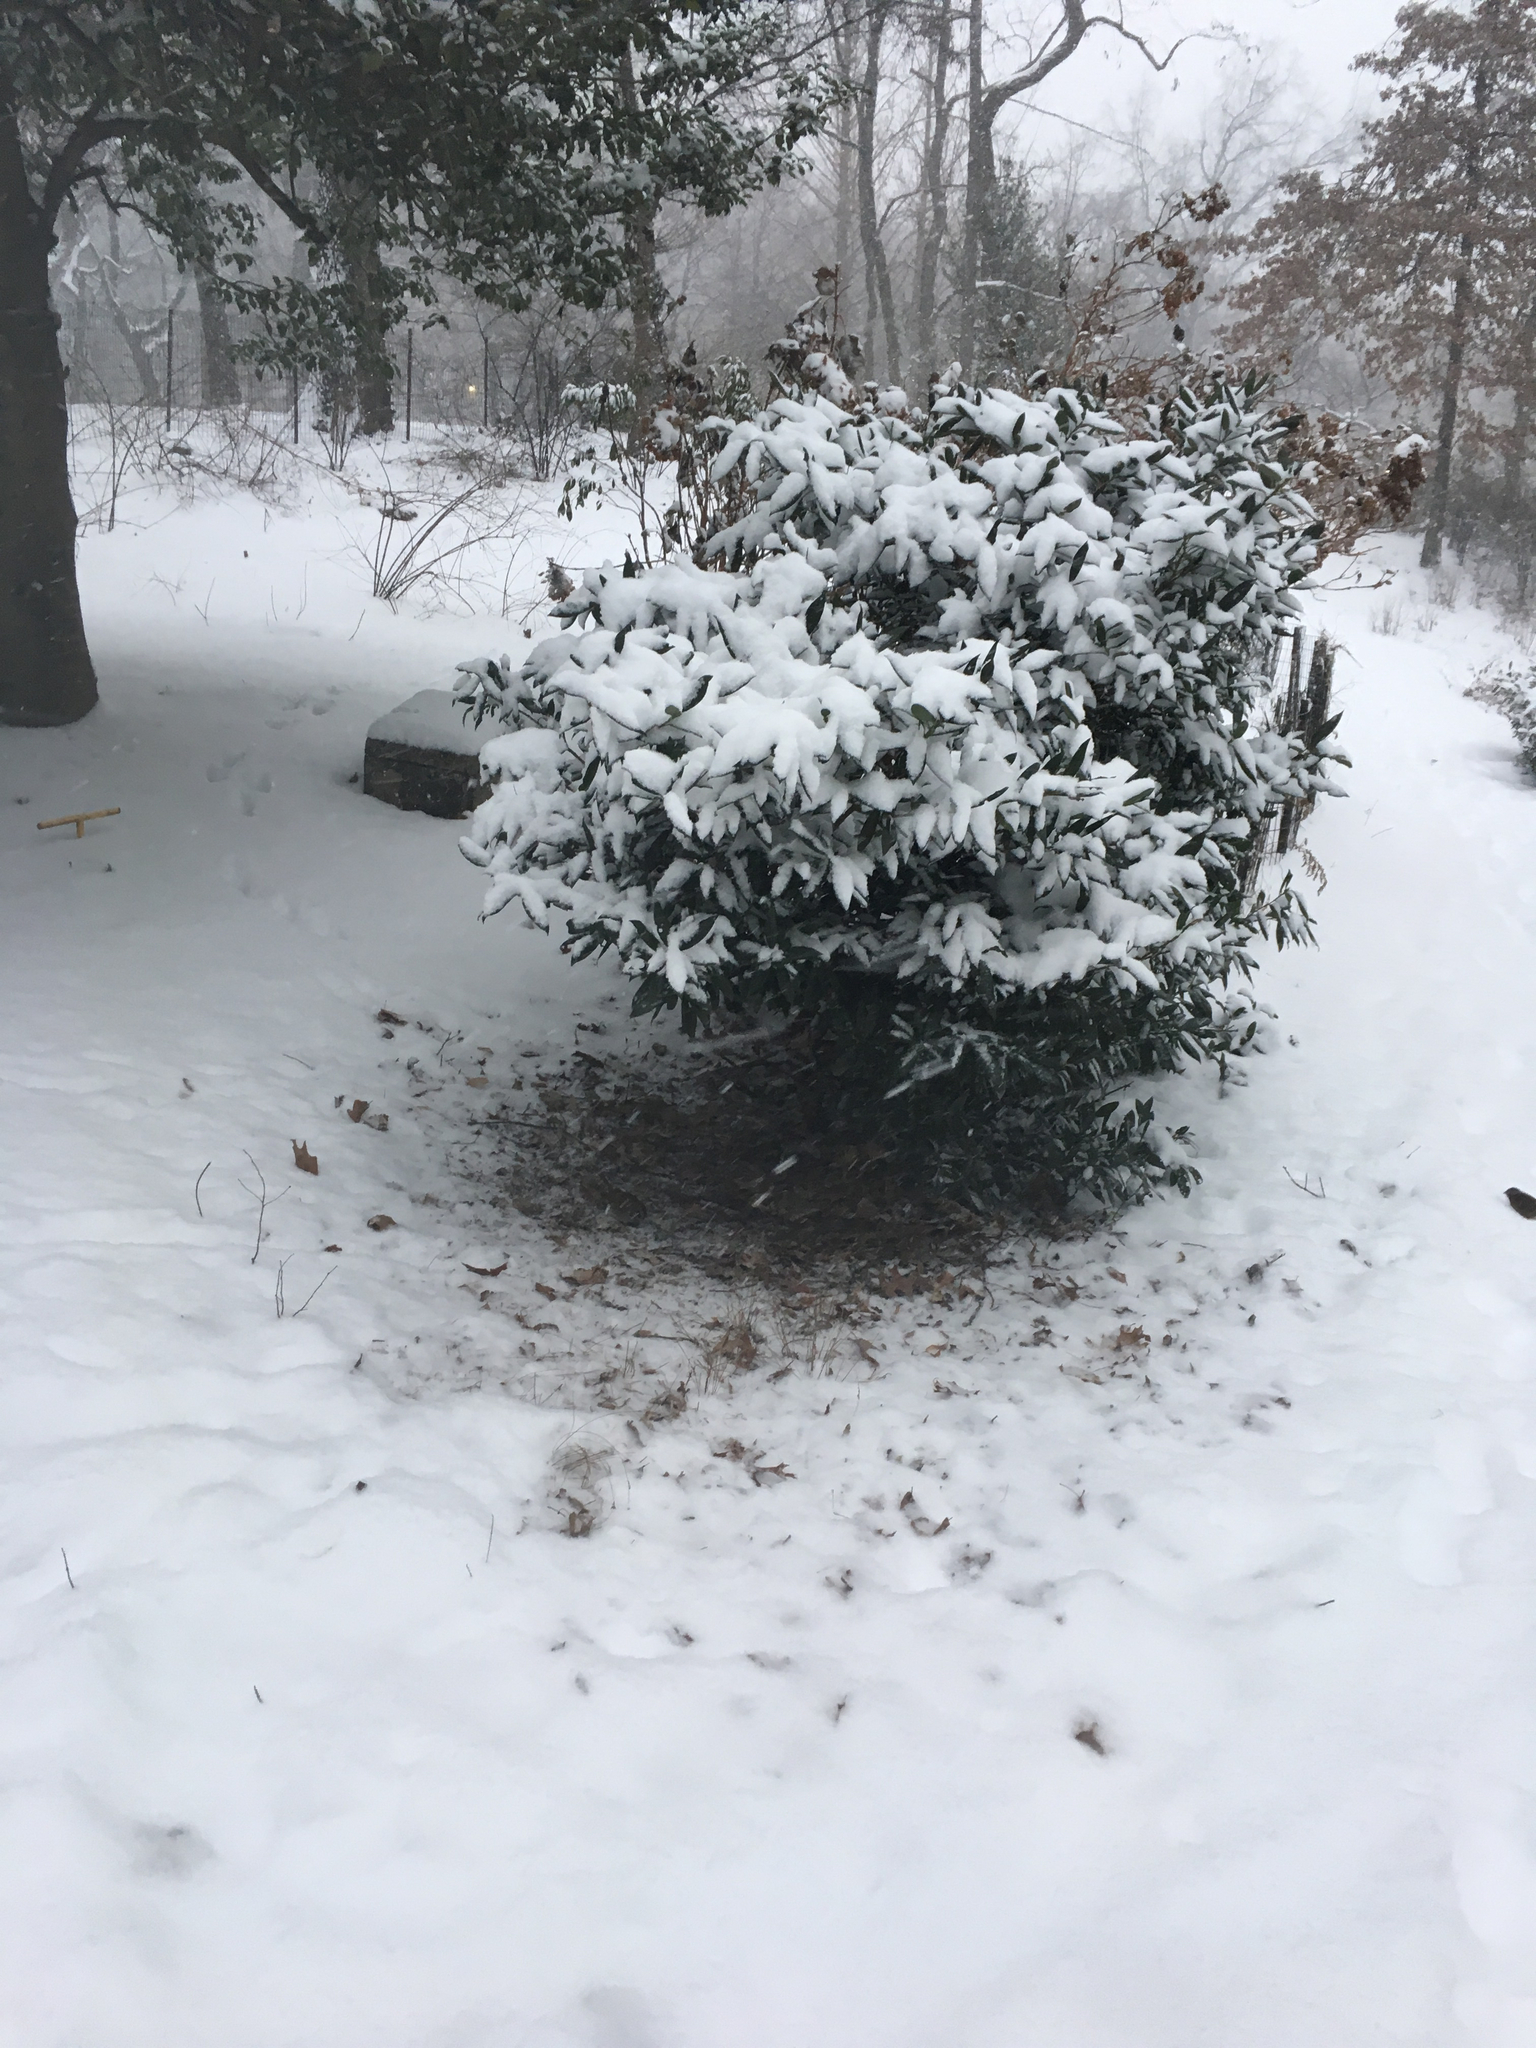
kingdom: Animalia
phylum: Chordata
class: Aves
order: Passeriformes
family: Passerellidae
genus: Zonotrichia
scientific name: Zonotrichia albicollis
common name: White-throated sparrow
